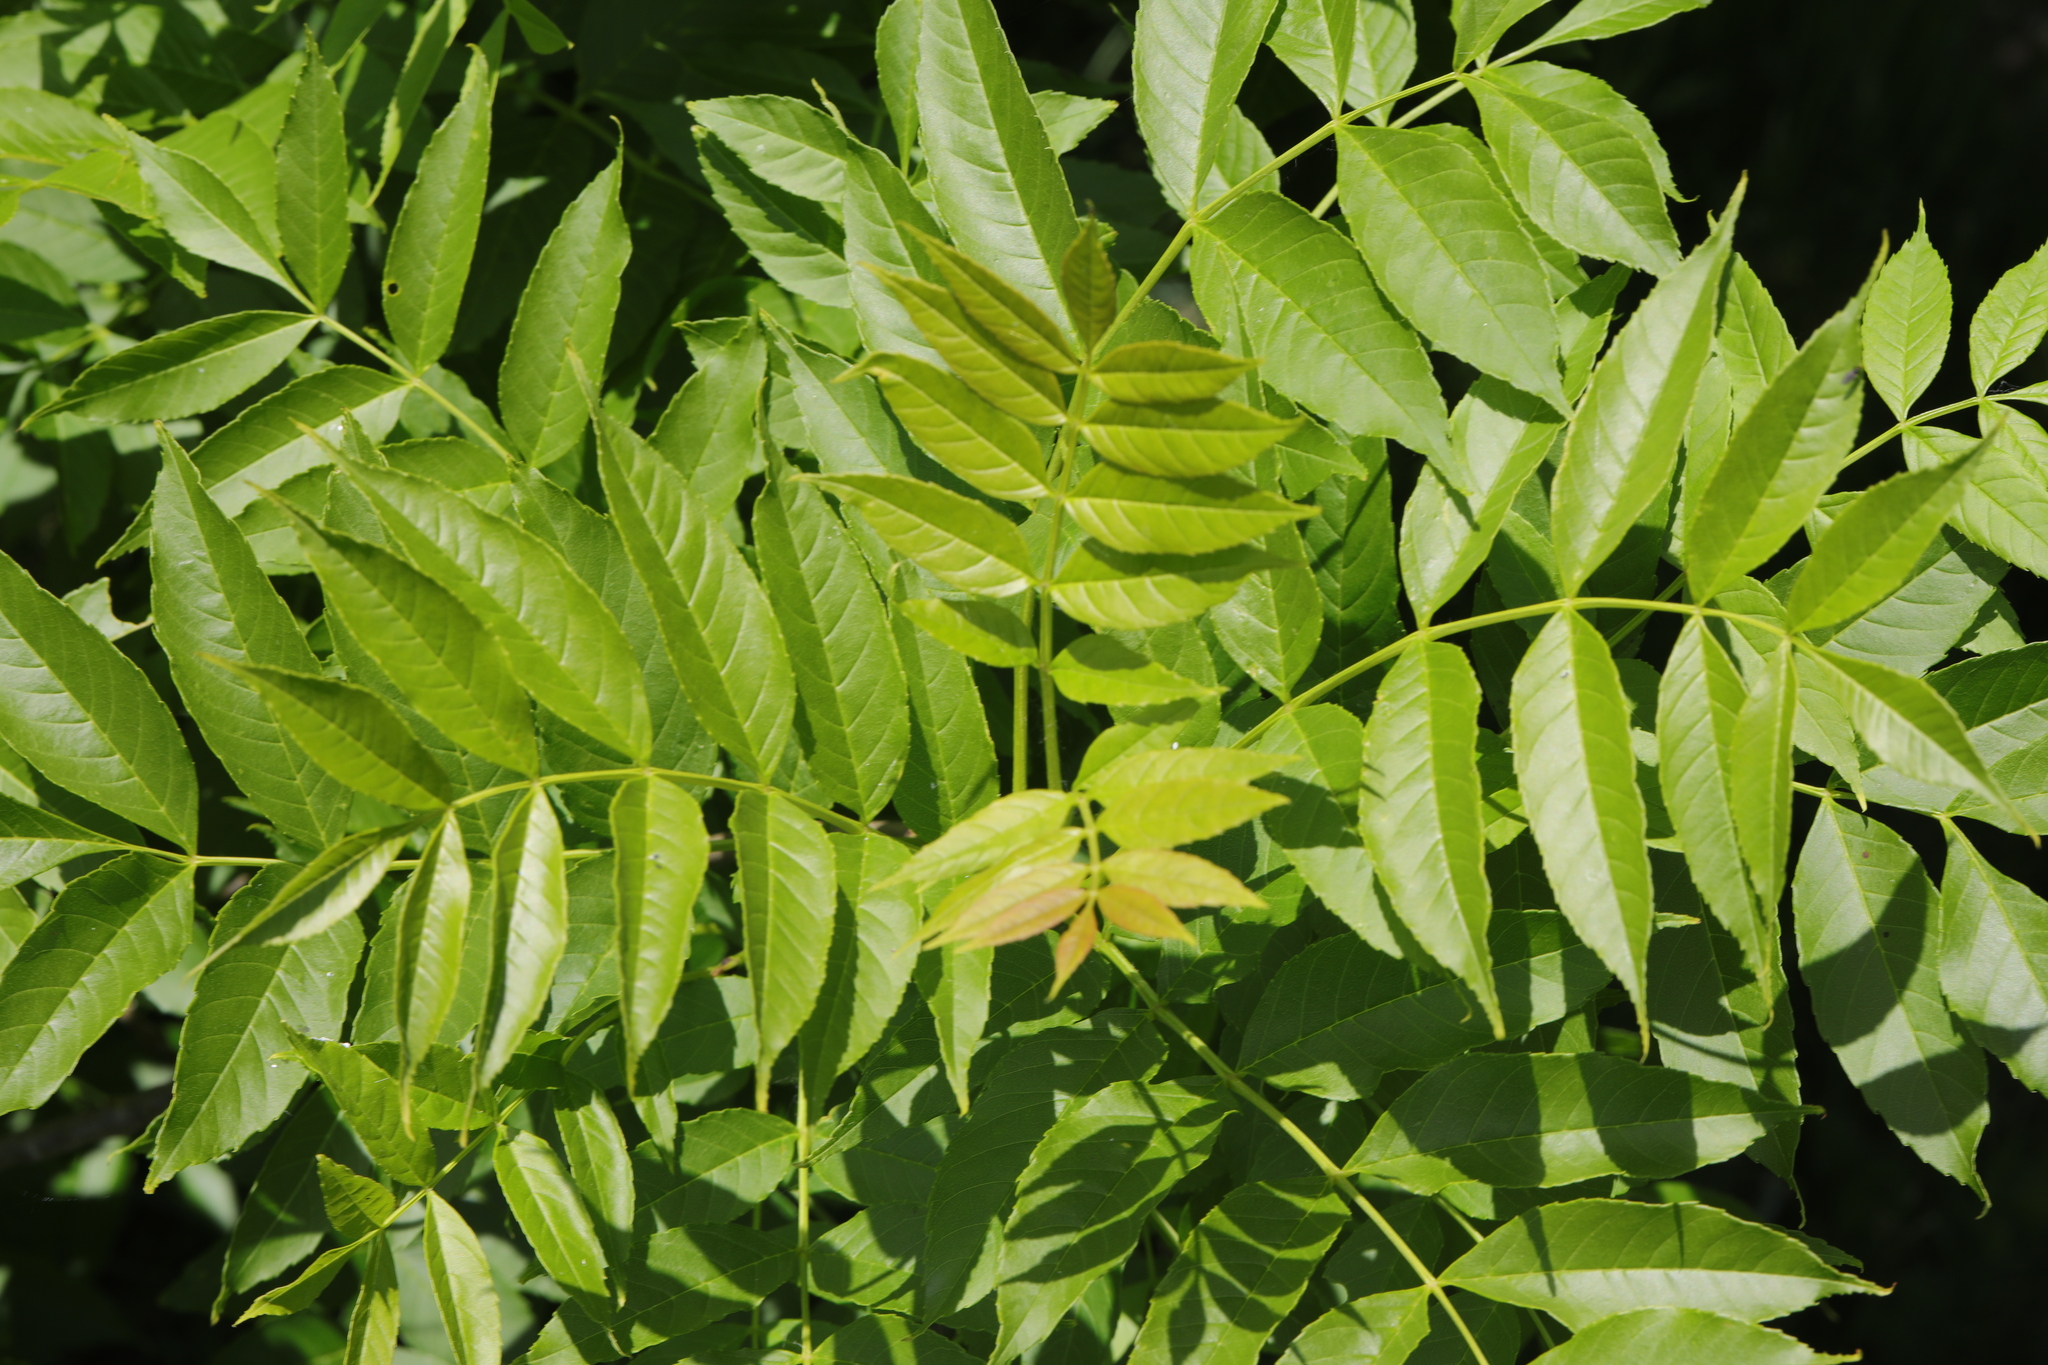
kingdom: Plantae
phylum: Tracheophyta
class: Magnoliopsida
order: Lamiales
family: Oleaceae
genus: Fraxinus
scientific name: Fraxinus excelsior
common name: European ash
